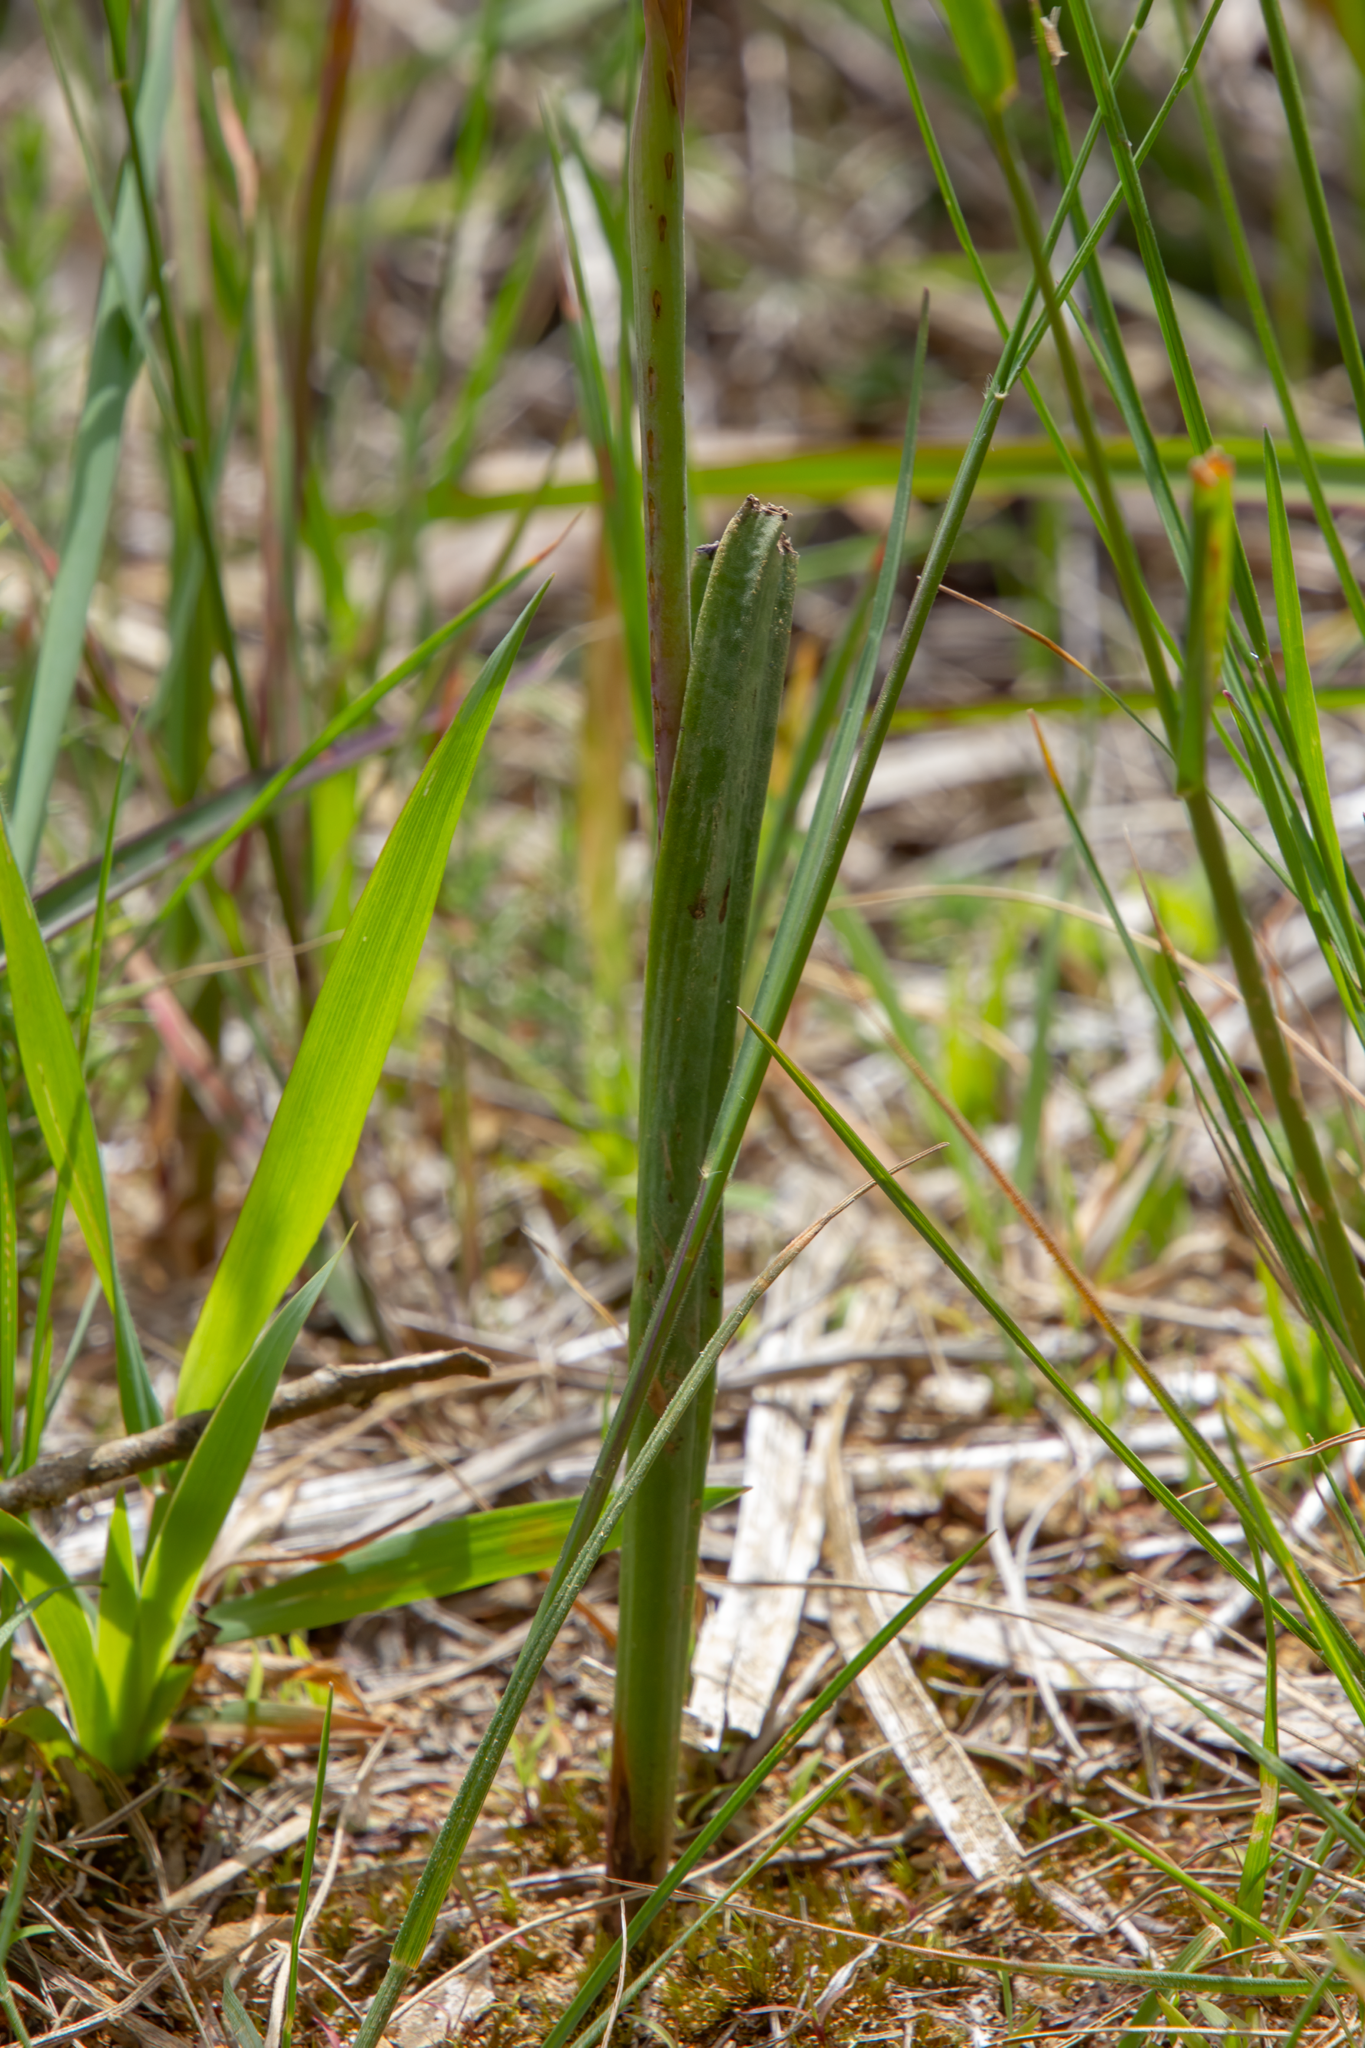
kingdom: Plantae
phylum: Tracheophyta
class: Liliopsida
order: Asparagales
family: Orchidaceae
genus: Thelymitra
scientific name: Thelymitra pauciflora
